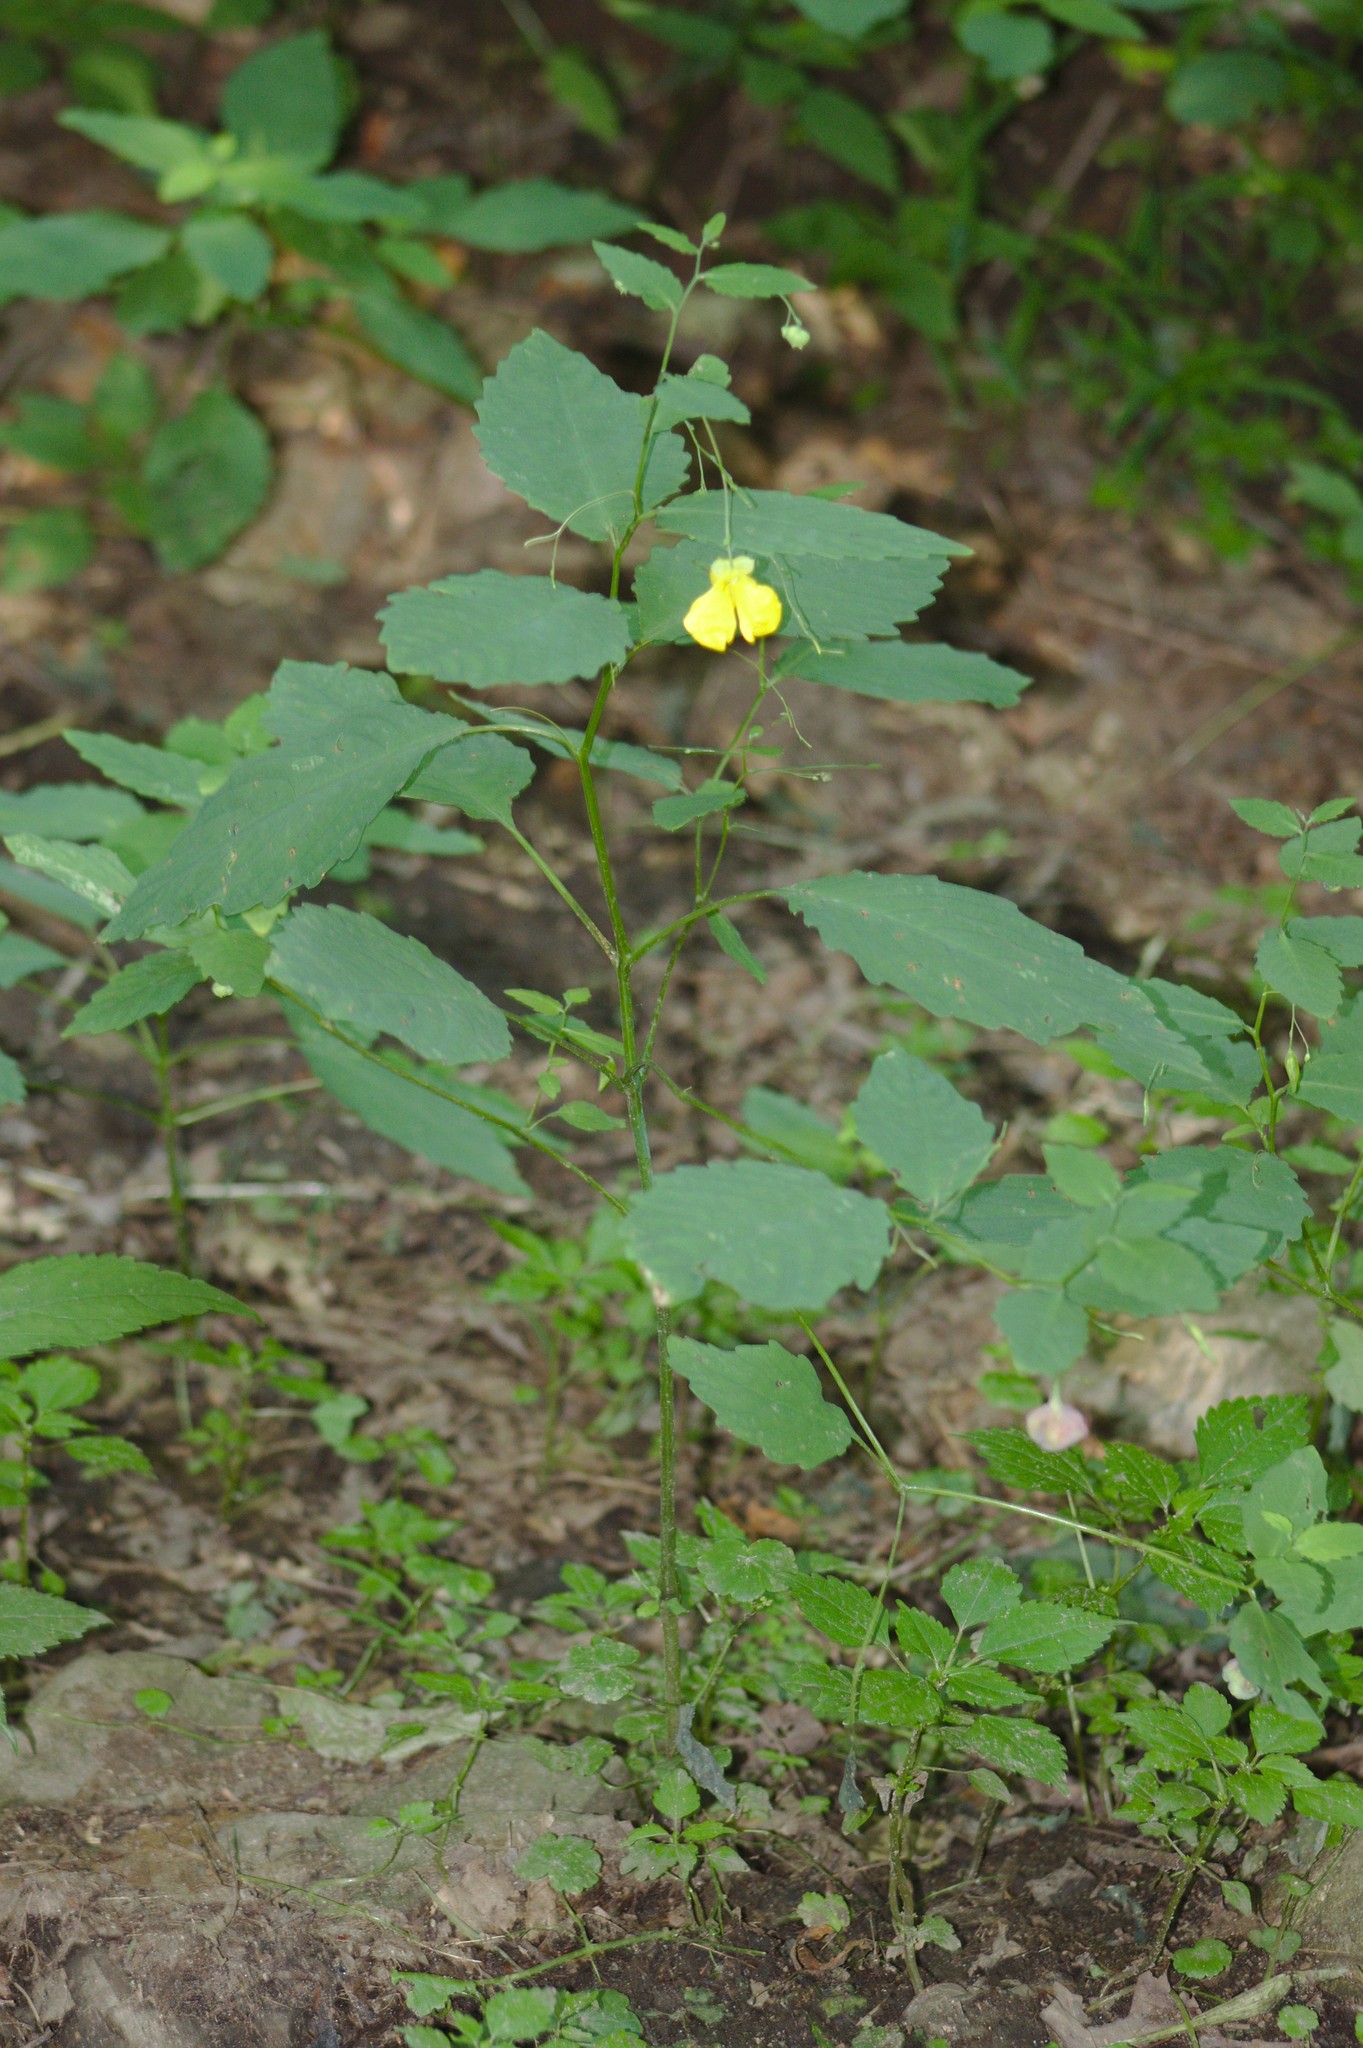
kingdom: Plantae
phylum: Tracheophyta
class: Magnoliopsida
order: Ericales
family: Balsaminaceae
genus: Impatiens
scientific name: Impatiens pallida
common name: Pale snapweed
